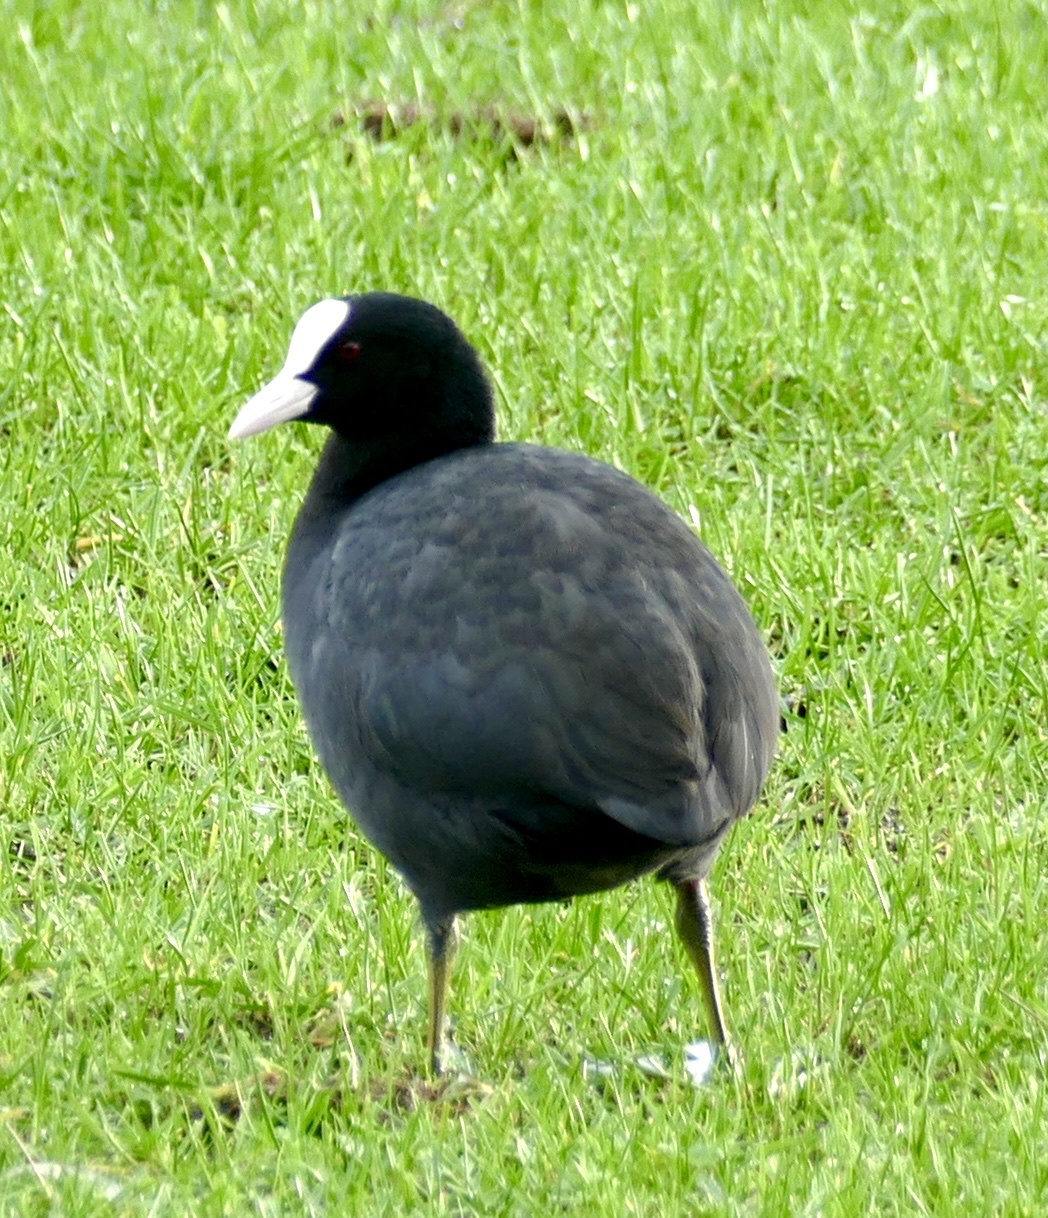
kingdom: Animalia
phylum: Chordata
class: Aves
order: Gruiformes
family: Rallidae
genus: Fulica
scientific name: Fulica atra
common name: Eurasian coot
